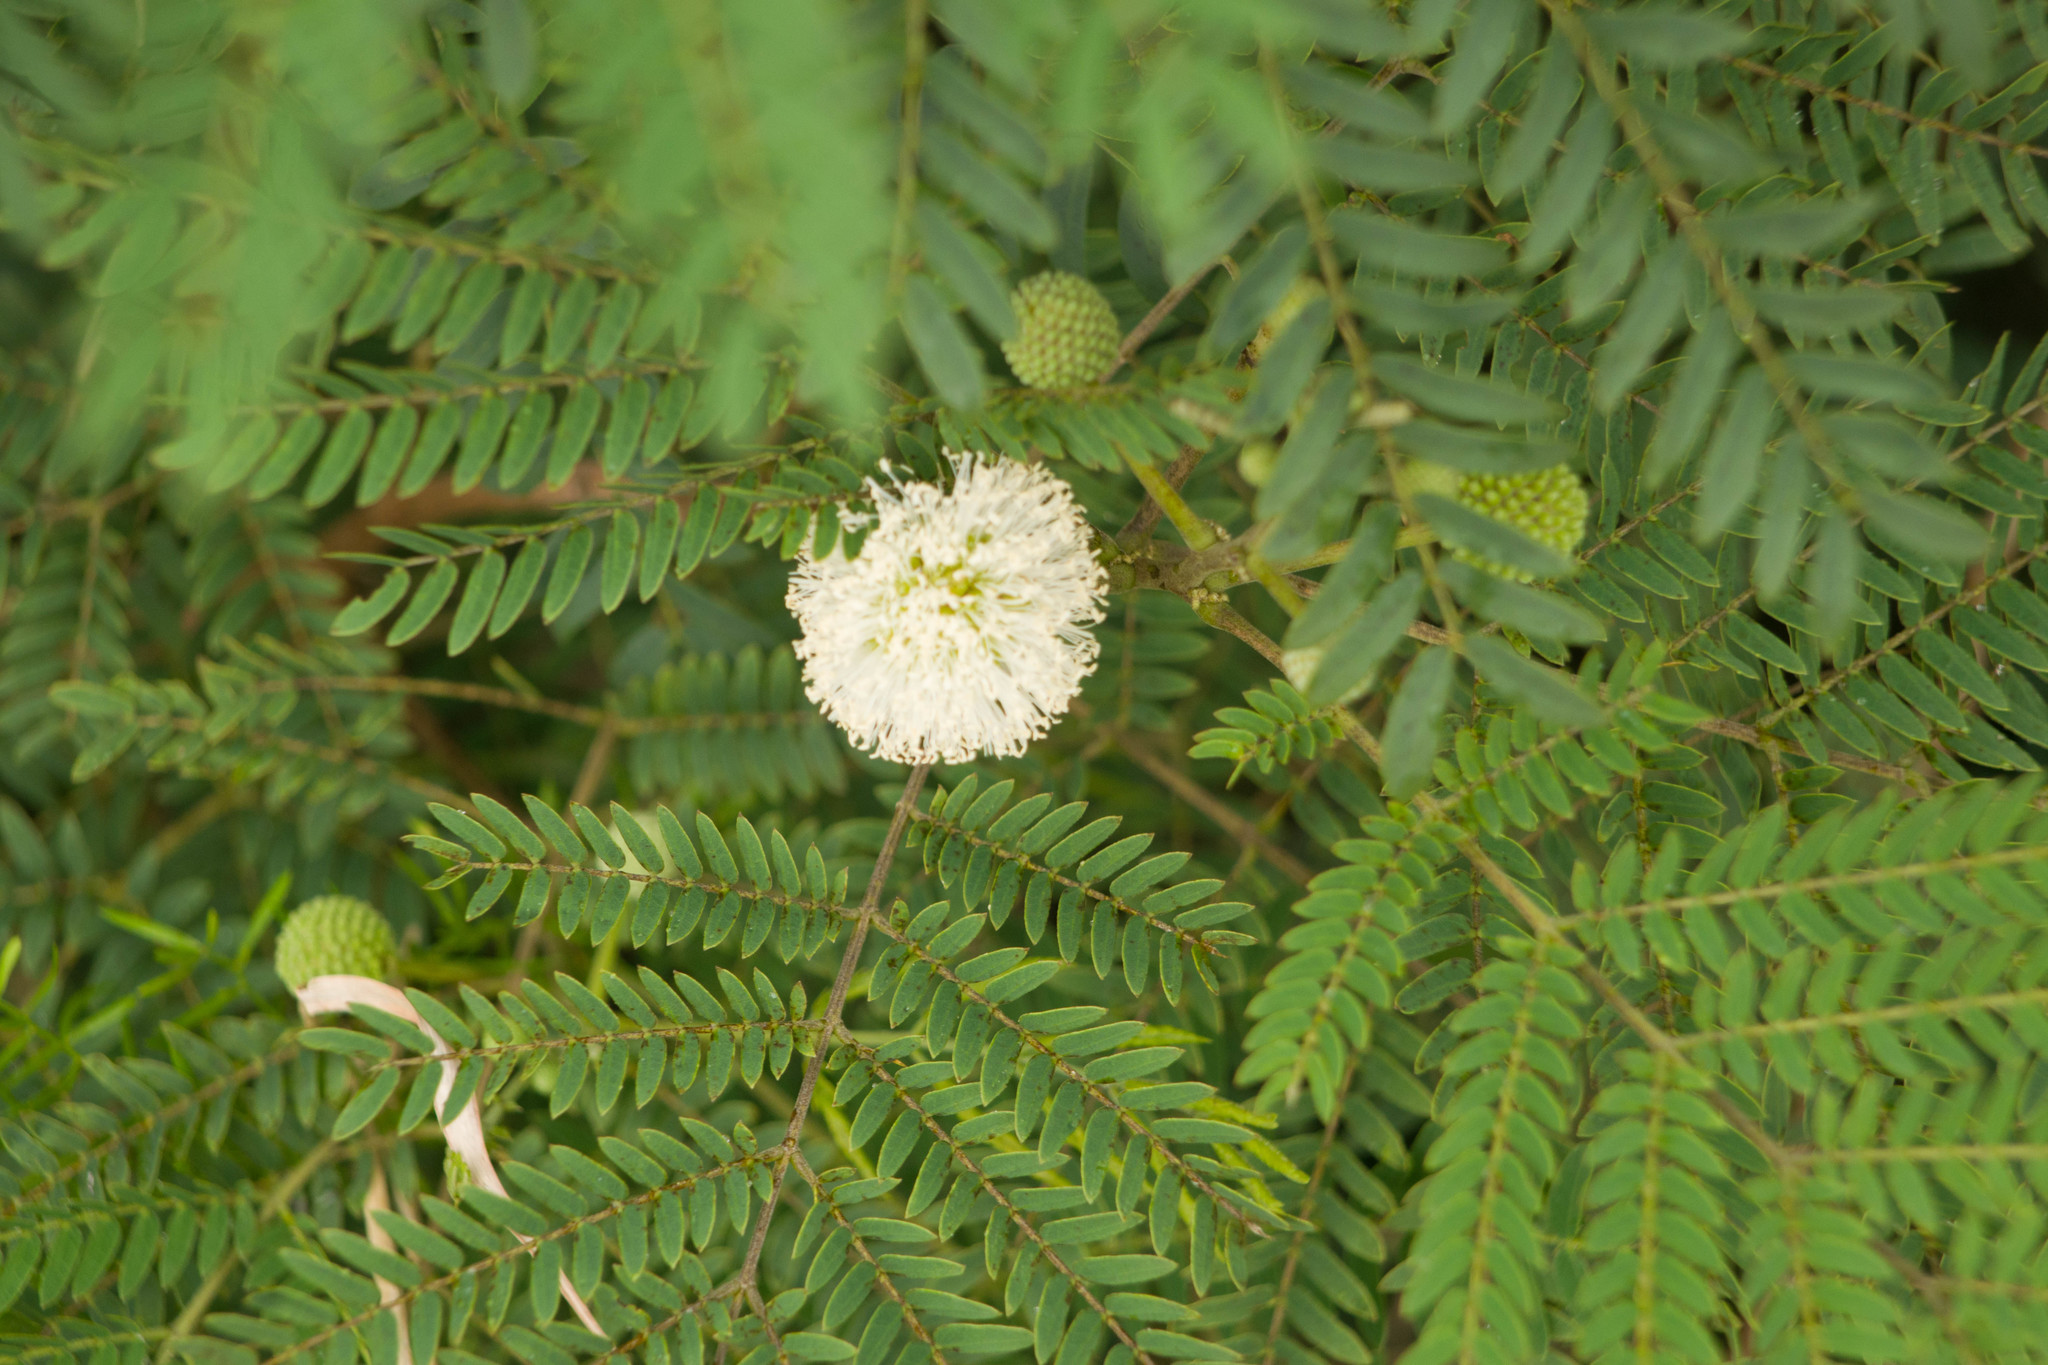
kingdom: Plantae
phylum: Tracheophyta
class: Magnoliopsida
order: Fabales
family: Fabaceae
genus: Leucaena
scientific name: Leucaena leucocephala
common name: White leadtree
